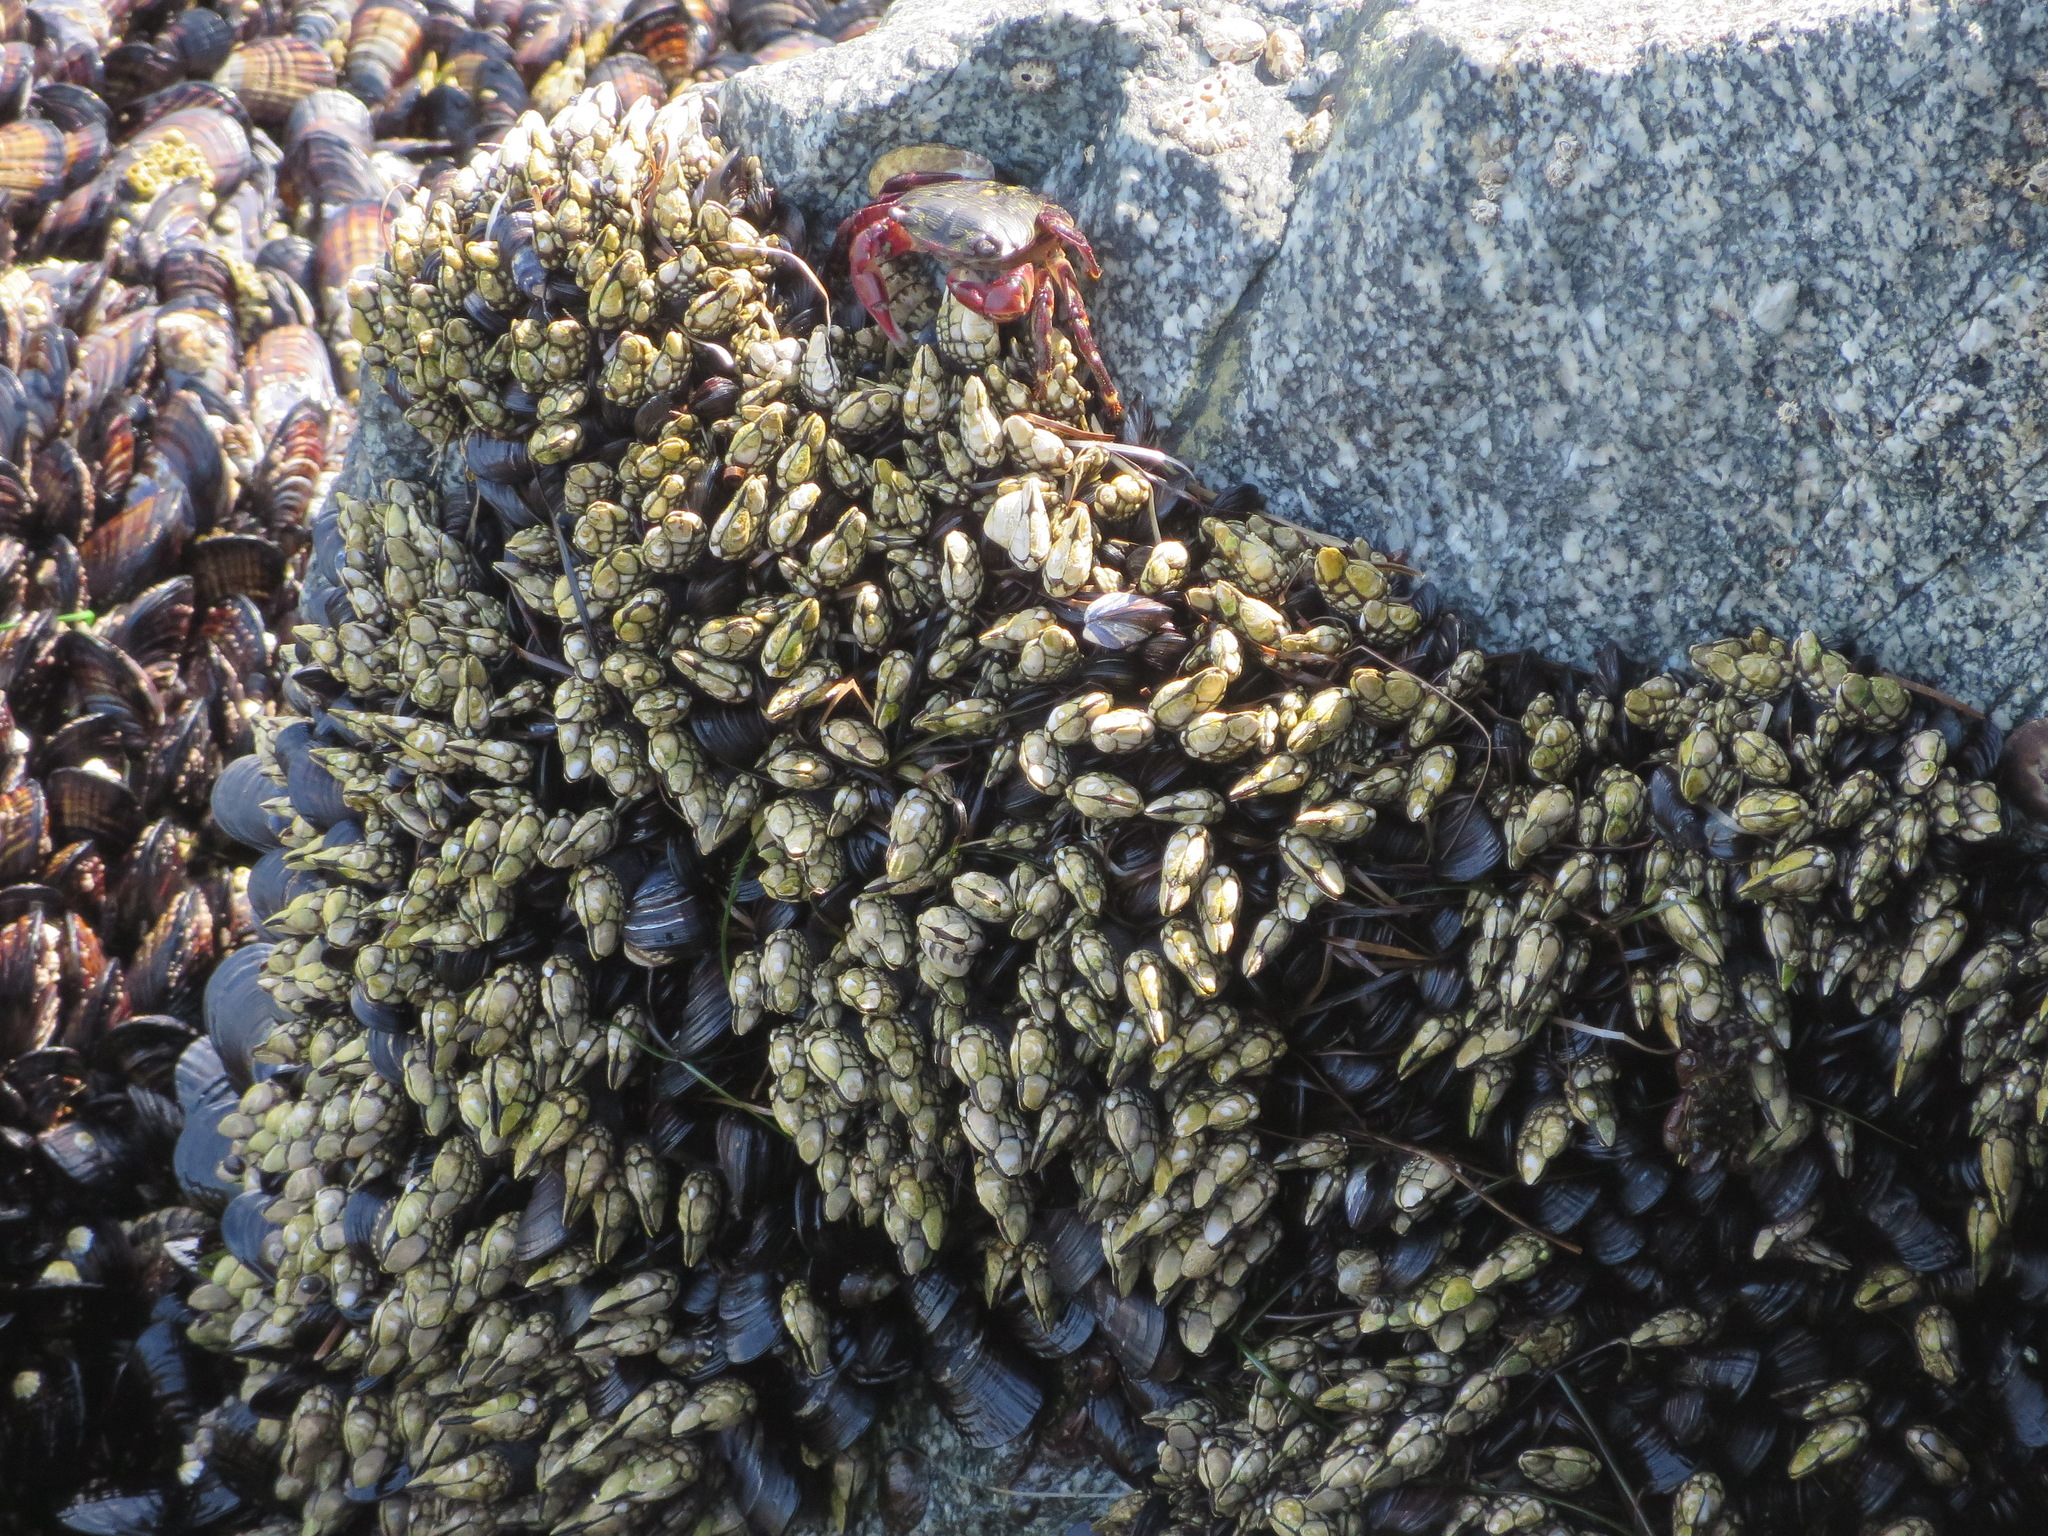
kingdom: Animalia
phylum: Arthropoda
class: Maxillopoda
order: Pedunculata
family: Pollicipedidae
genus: Pollicipes
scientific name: Pollicipes polymerus
